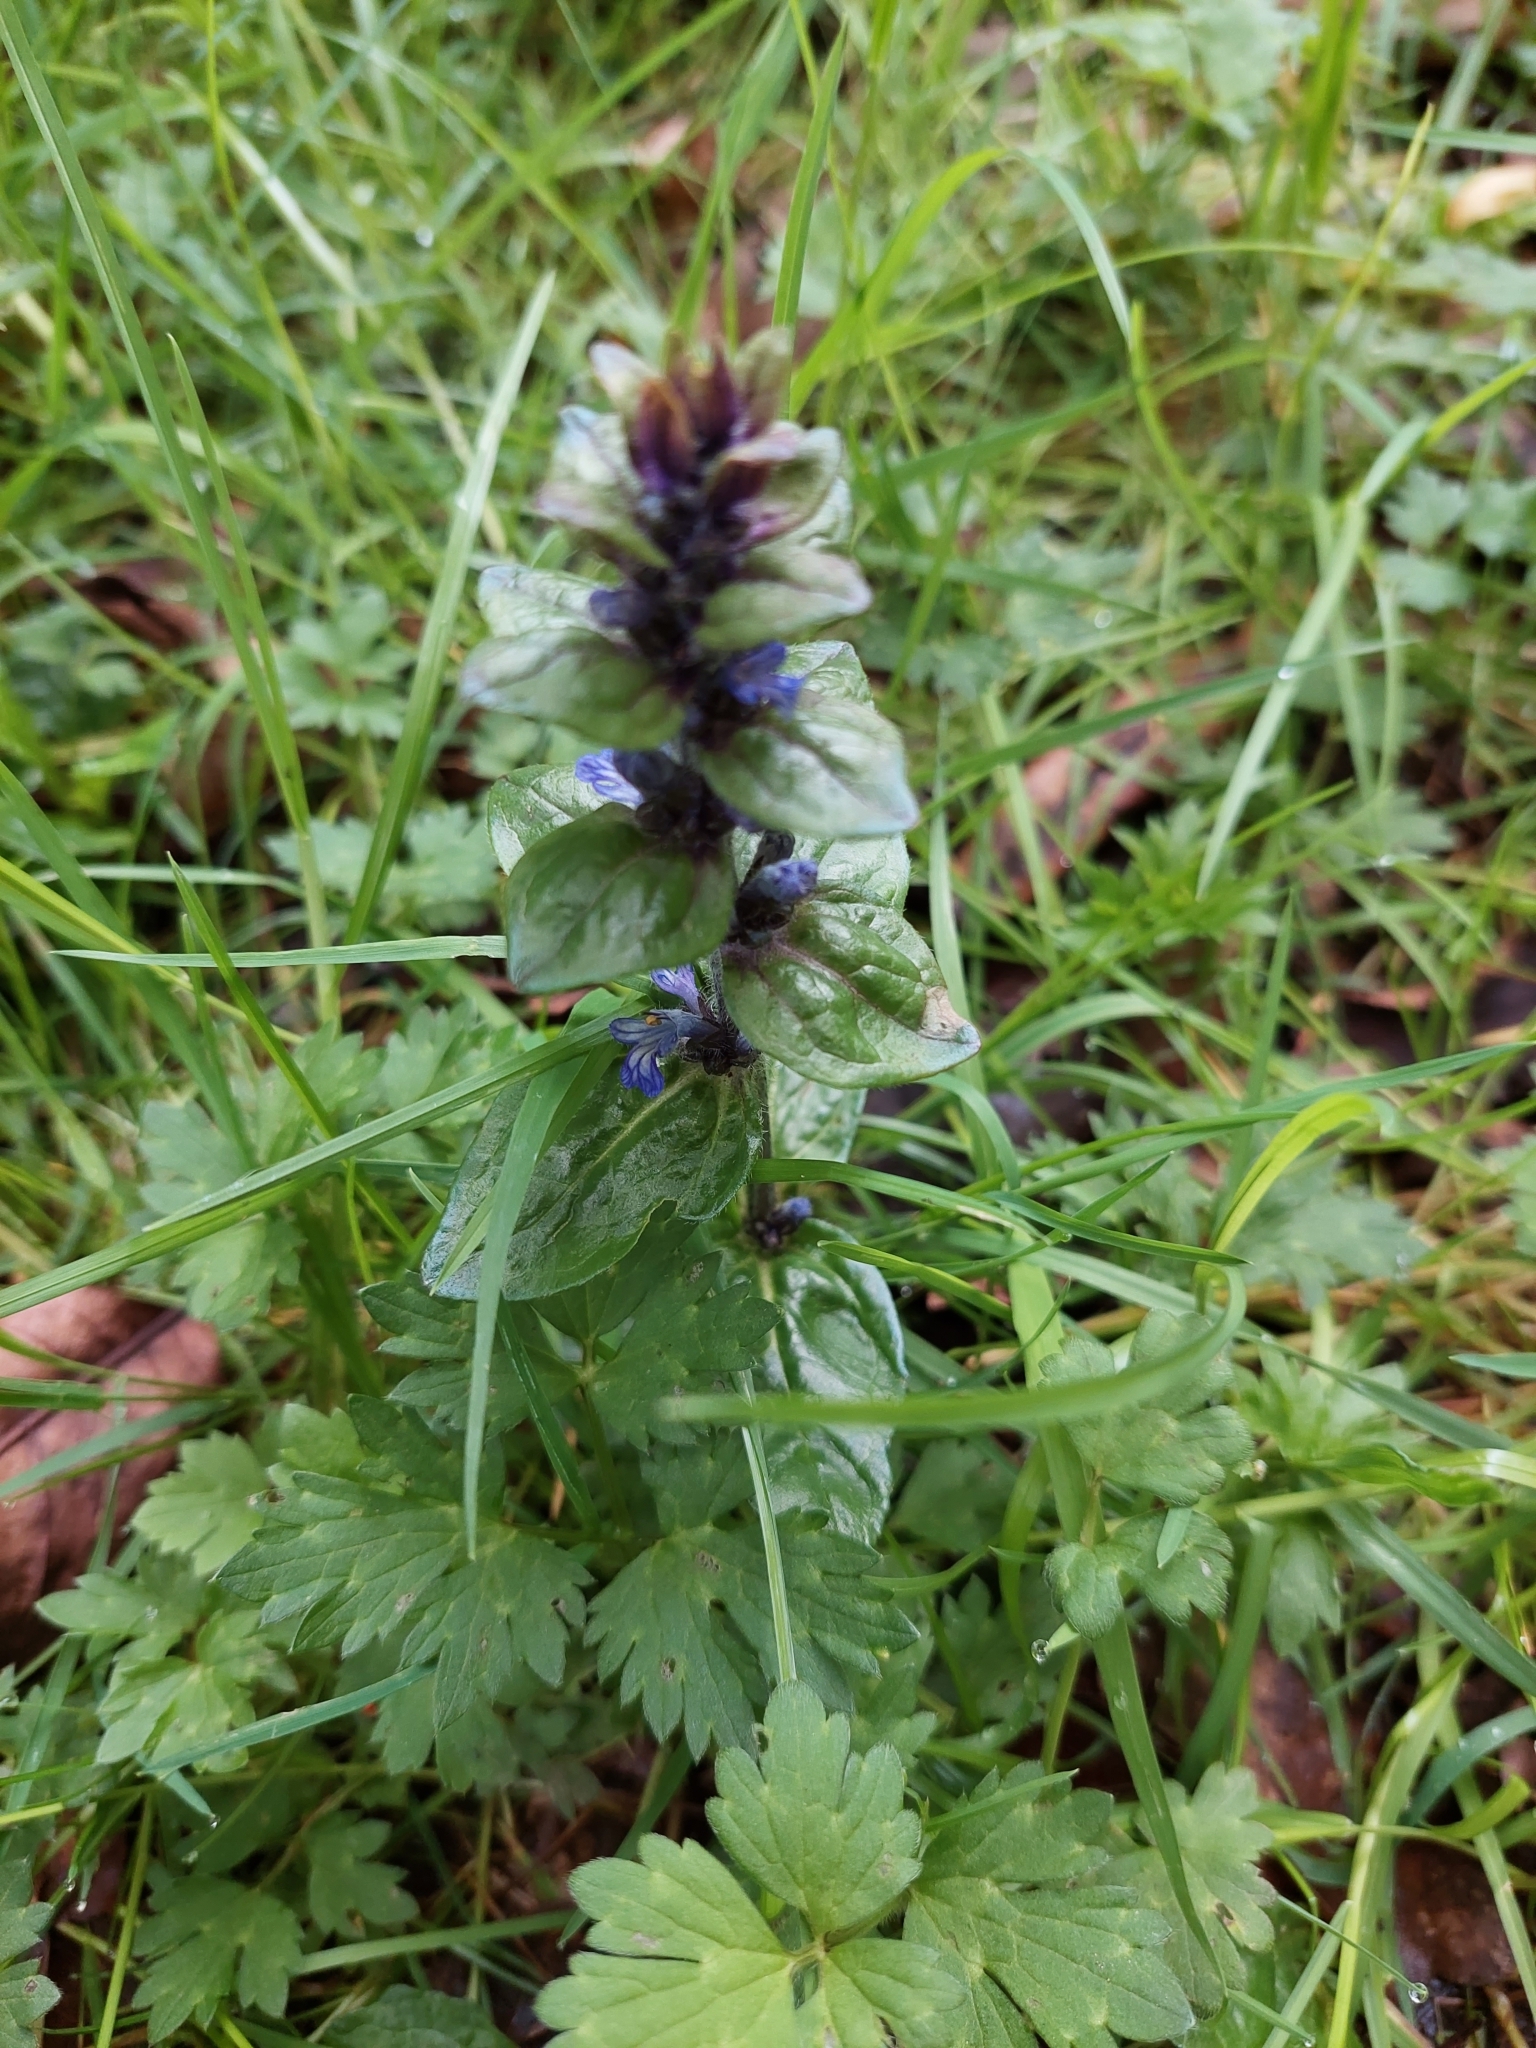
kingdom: Plantae
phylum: Tracheophyta
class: Magnoliopsida
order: Lamiales
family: Lamiaceae
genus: Ajuga
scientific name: Ajuga reptans
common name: Bugle
